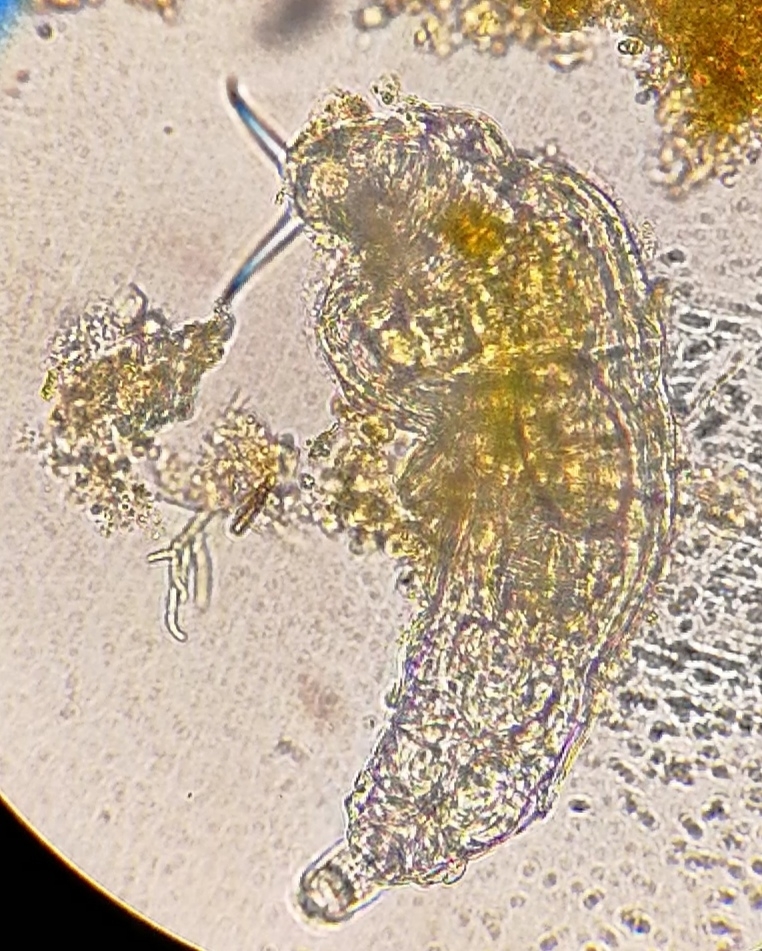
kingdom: Animalia
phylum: Rotifera
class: Eurotatoria
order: Bdelloidea
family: Philodinidae
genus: Dissotrocha
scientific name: Dissotrocha macrostyla
